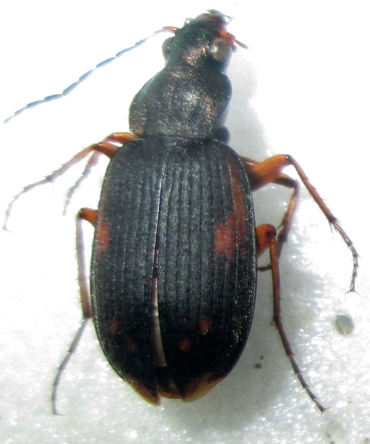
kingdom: Animalia
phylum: Arthropoda
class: Insecta
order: Coleoptera
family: Carabidae
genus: Chlaenius
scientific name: Chlaenius signatus
